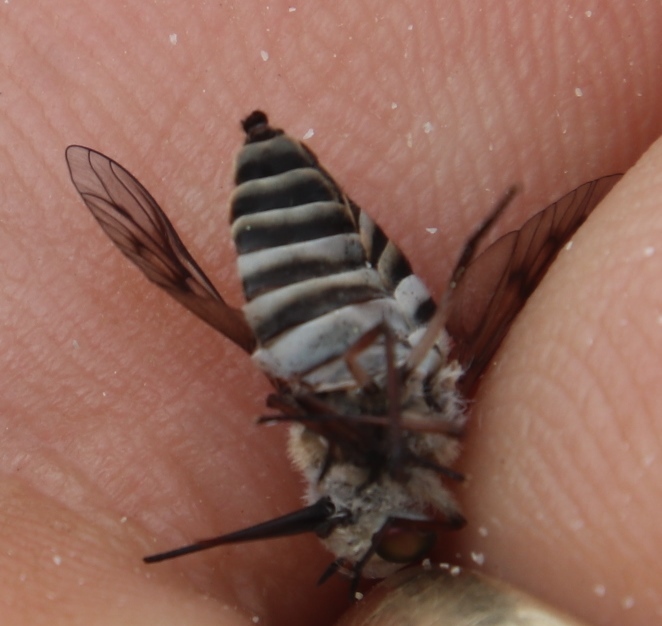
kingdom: Animalia
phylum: Arthropoda
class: Insecta
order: Diptera
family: Tabanidae
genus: Philoliche
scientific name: Philoliche alternans
